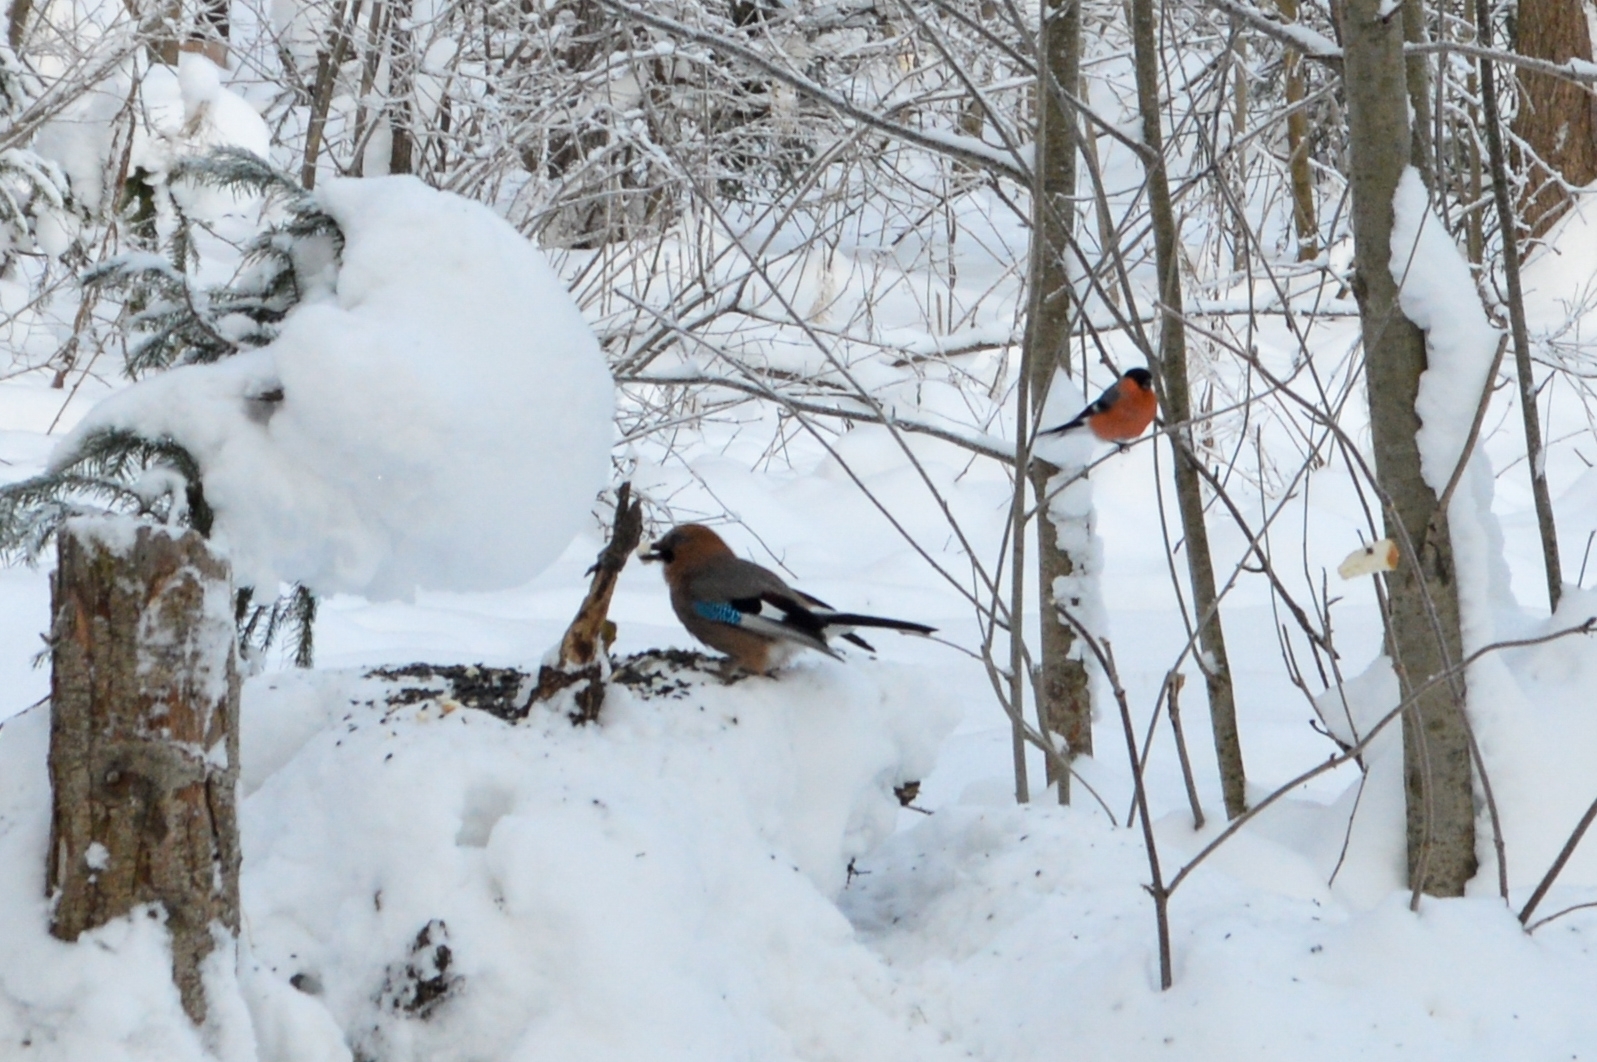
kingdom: Animalia
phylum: Chordata
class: Aves
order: Passeriformes
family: Corvidae
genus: Garrulus
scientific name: Garrulus glandarius
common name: Eurasian jay
